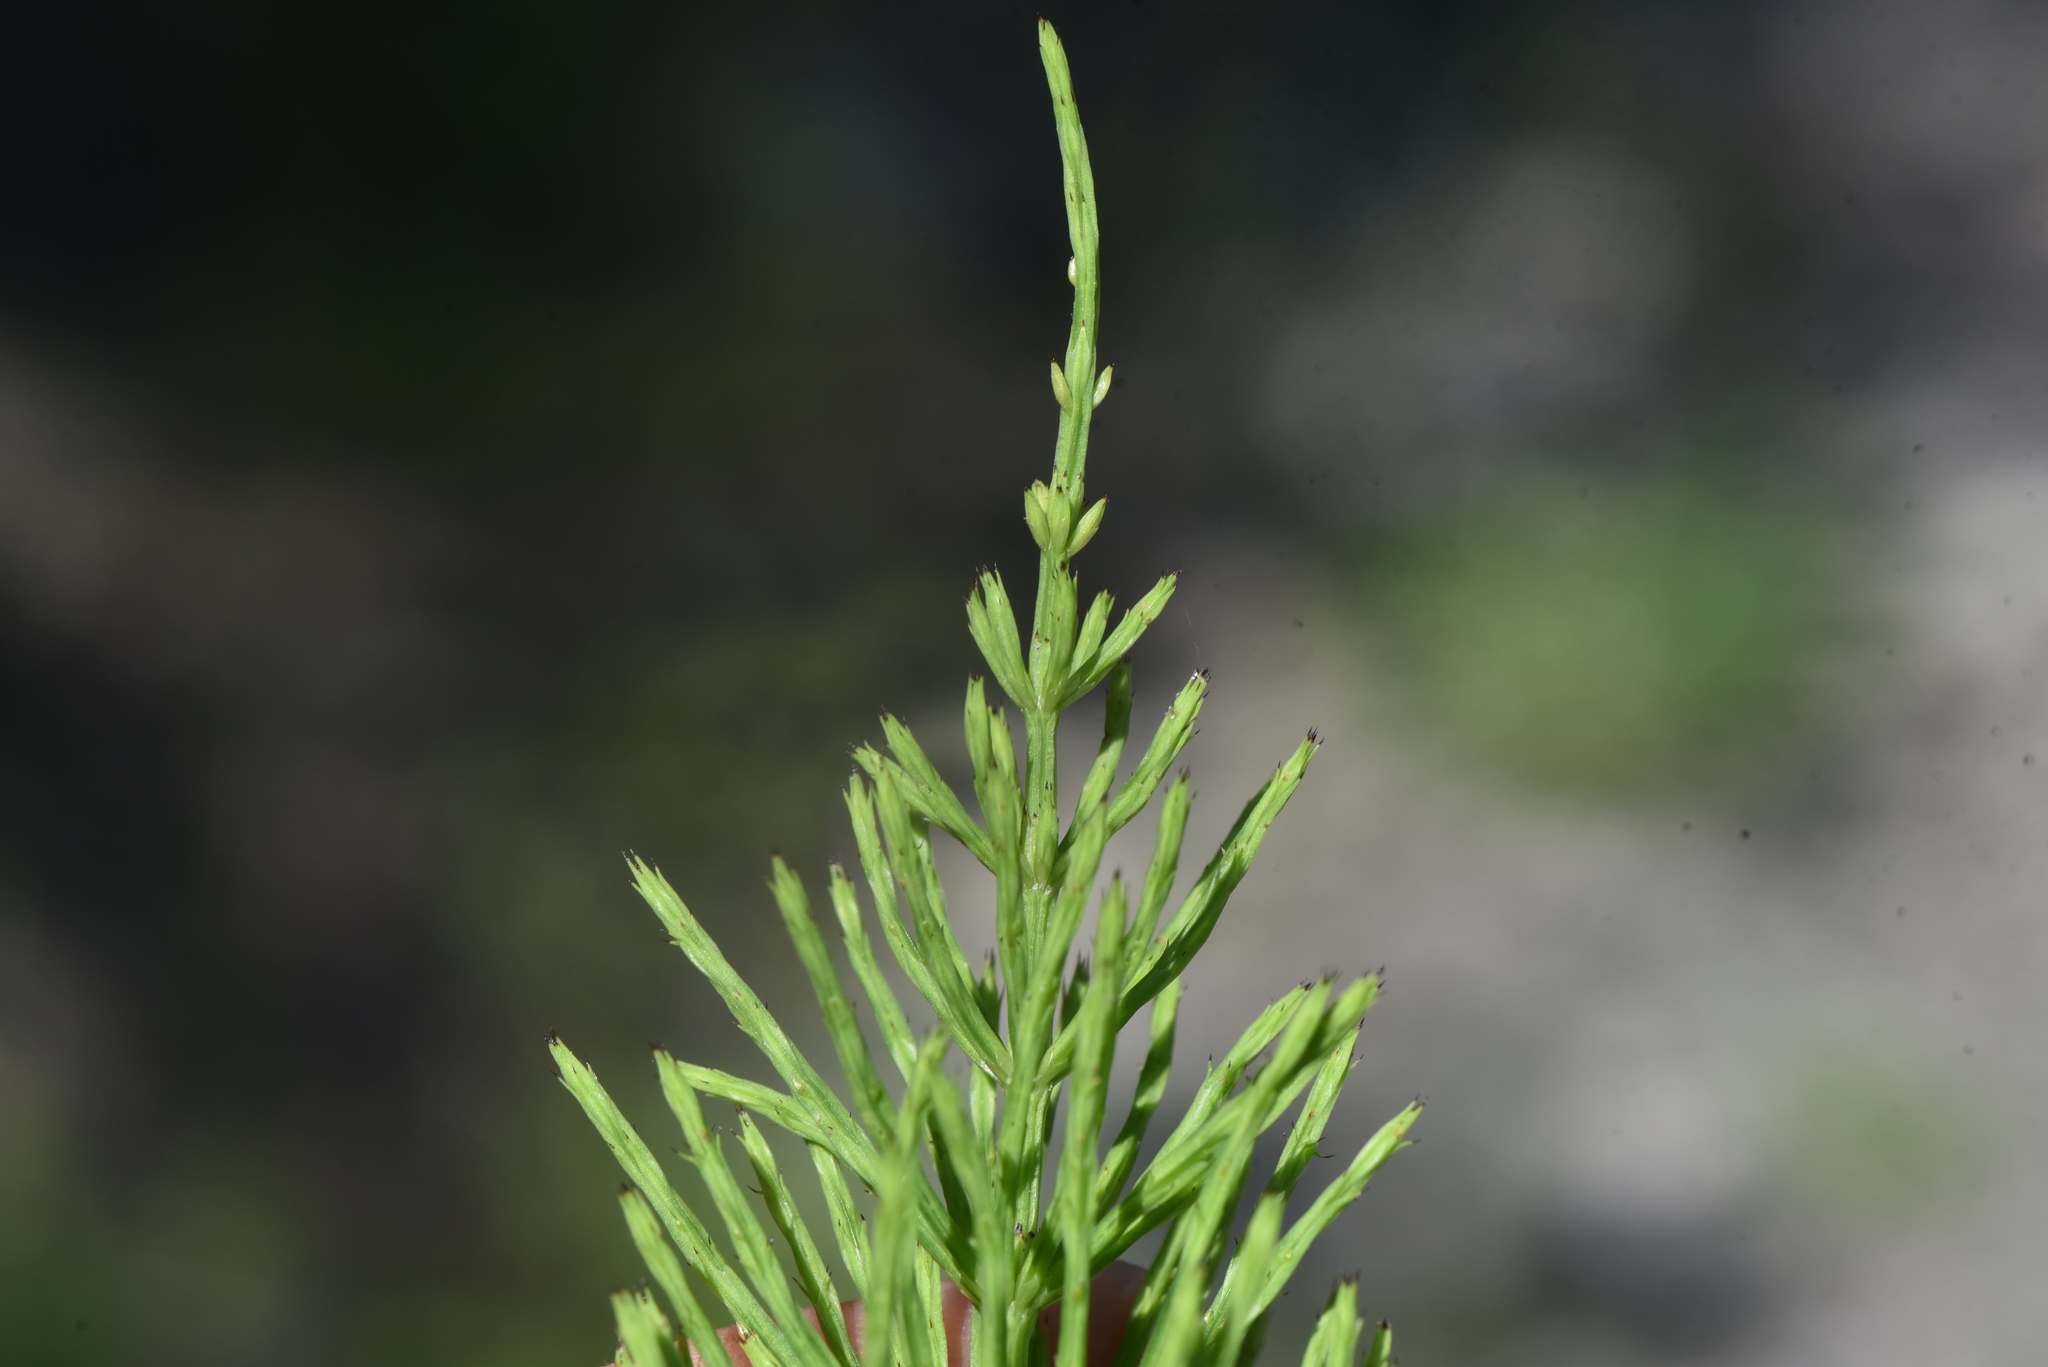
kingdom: Plantae
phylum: Tracheophyta
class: Polypodiopsida
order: Equisetales
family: Equisetaceae
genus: Equisetum
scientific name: Equisetum arvense
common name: Field horsetail
